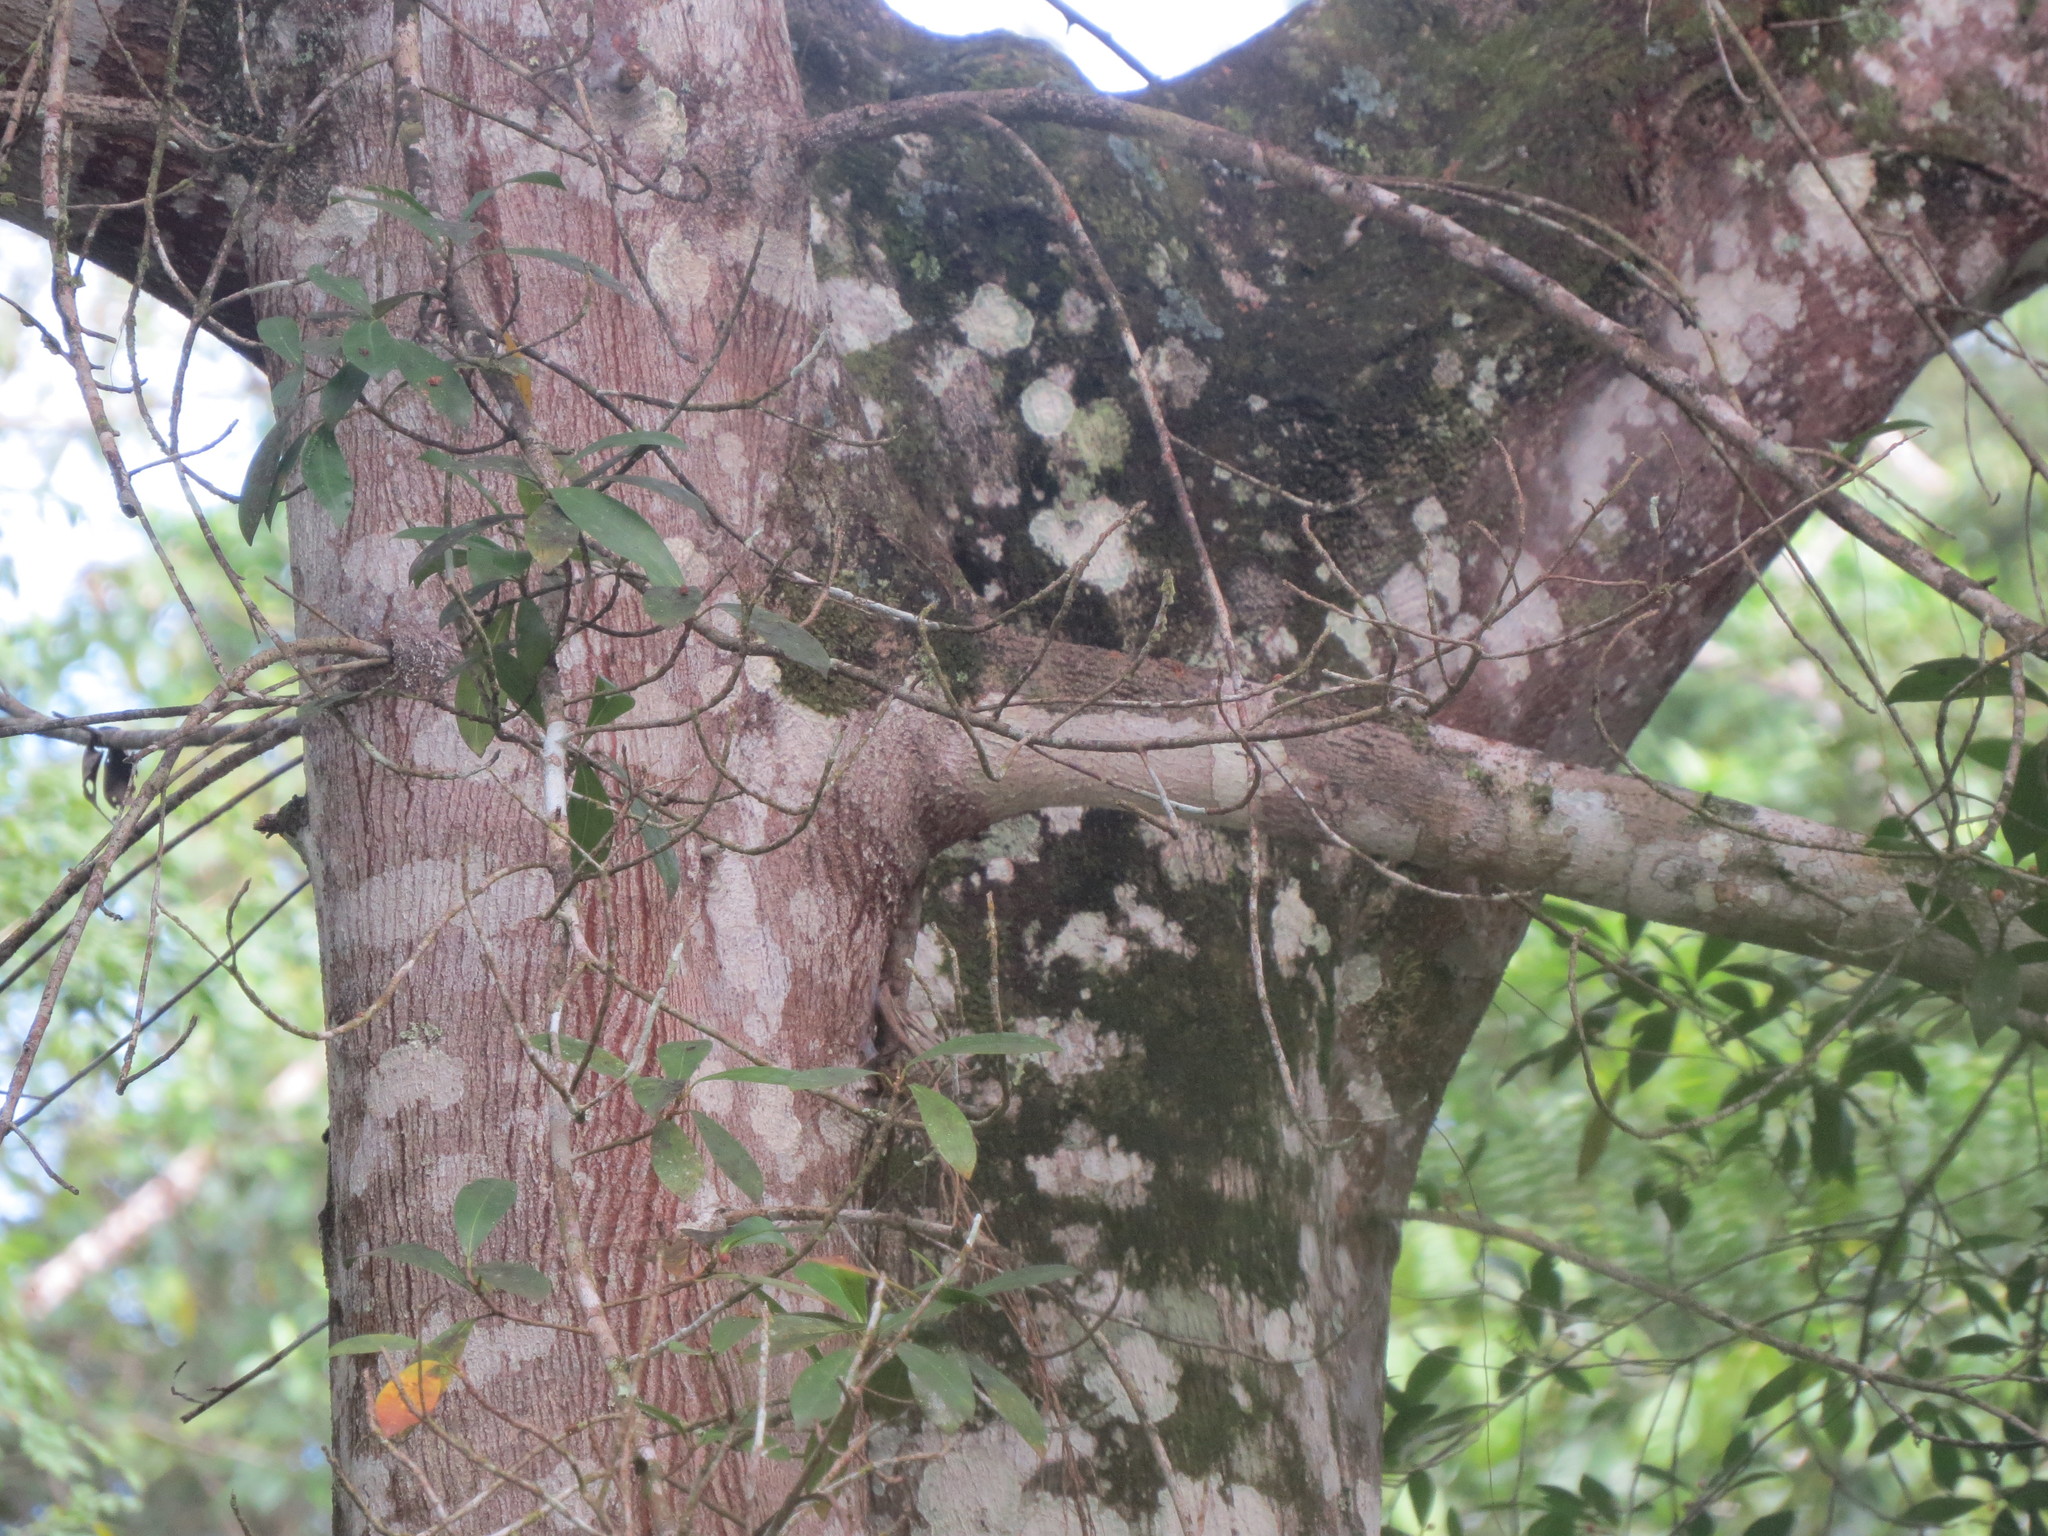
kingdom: Plantae
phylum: Tracheophyta
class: Magnoliopsida
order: Rosales
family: Moraceae
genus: Ficus
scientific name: Ficus americana
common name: Jamaican cherry fig
